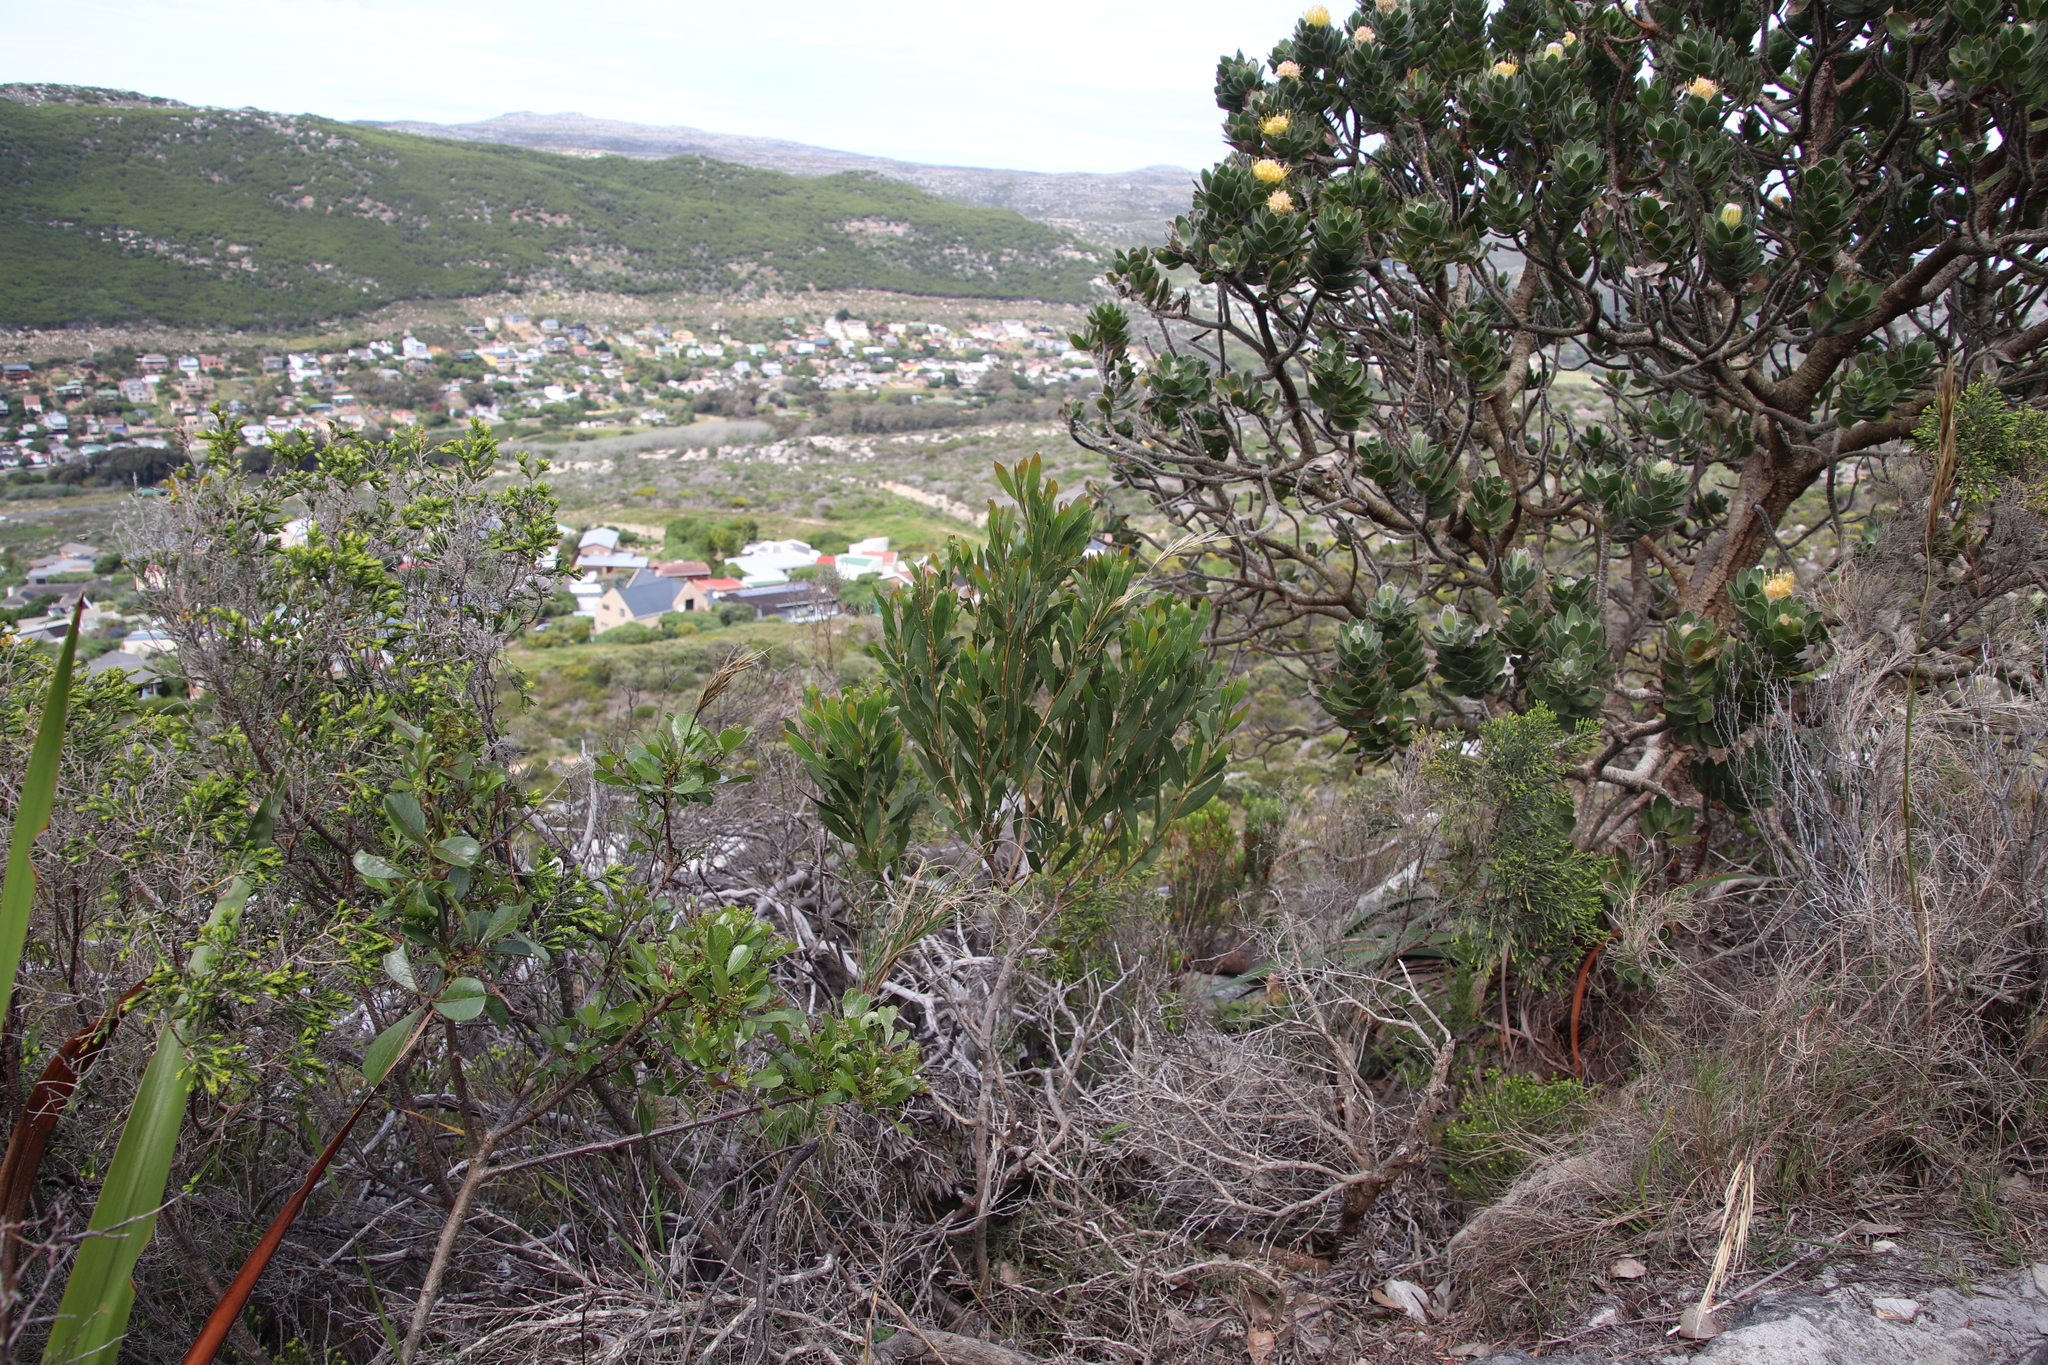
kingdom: Plantae
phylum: Tracheophyta
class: Magnoliopsida
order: Fabales
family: Fabaceae
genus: Acacia
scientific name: Acacia cyclops
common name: Coastal wattle
